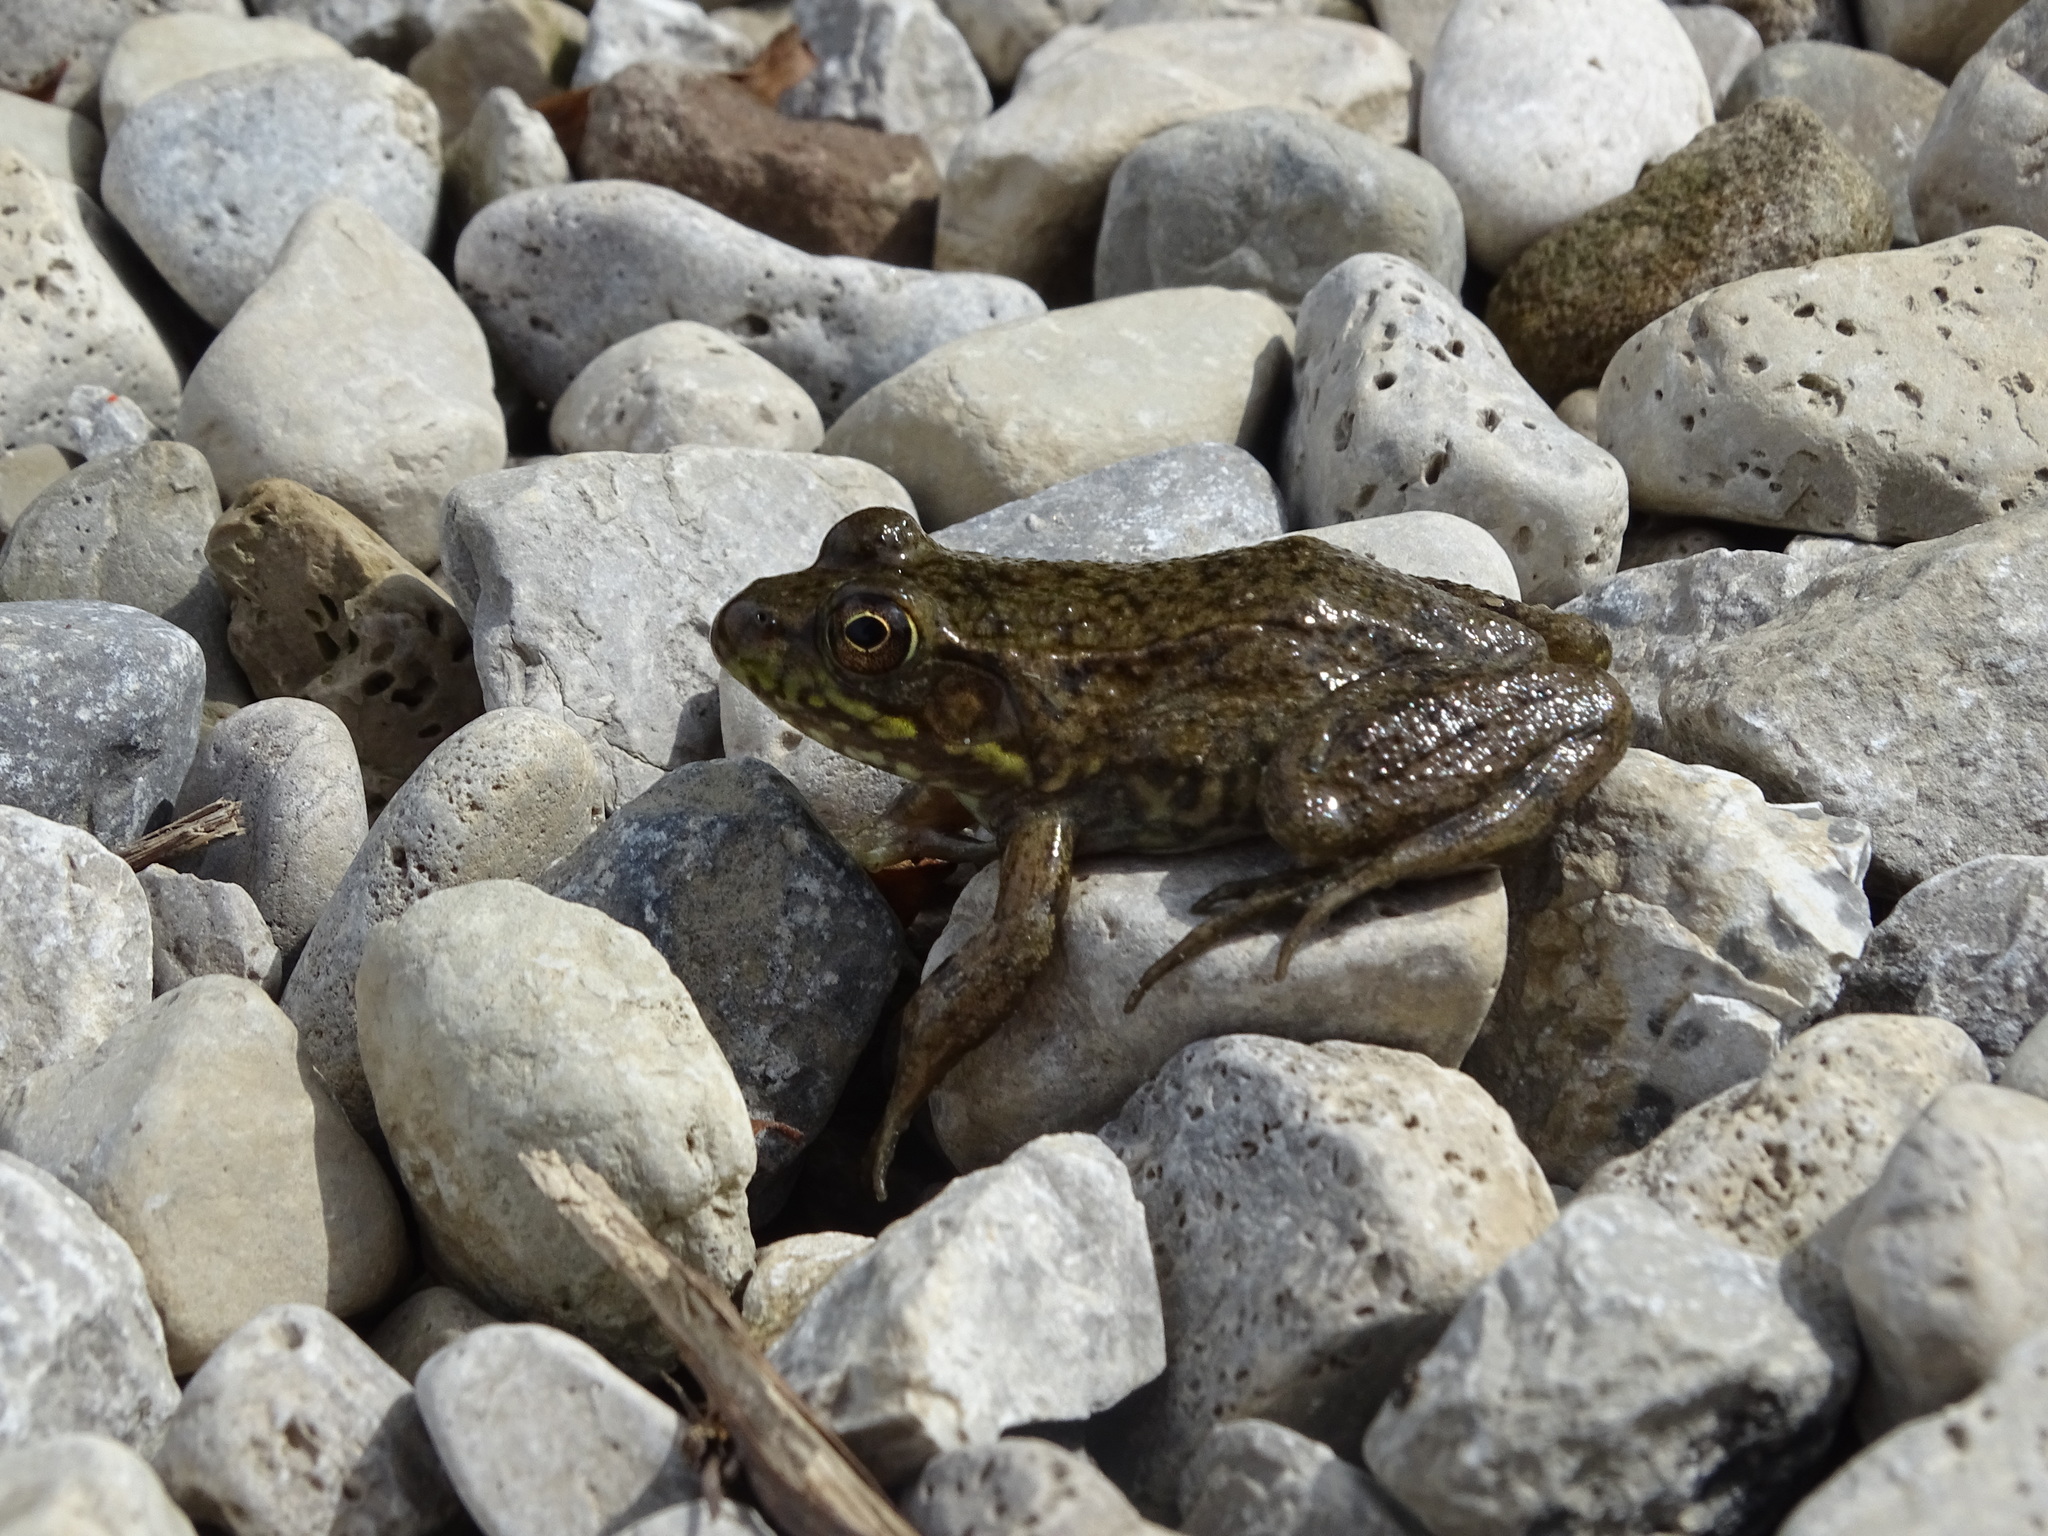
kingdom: Animalia
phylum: Chordata
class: Amphibia
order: Anura
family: Ranidae
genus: Lithobates
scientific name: Lithobates clamitans
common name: Green frog
